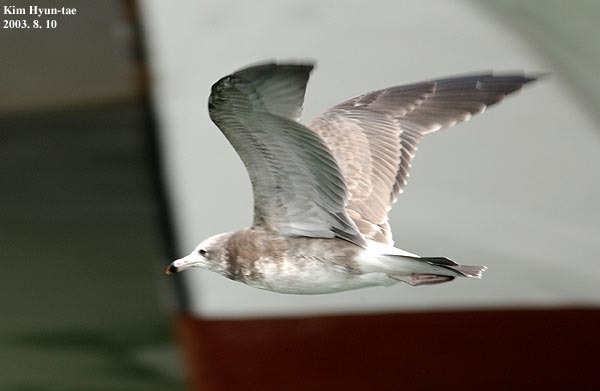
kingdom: Animalia
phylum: Chordata
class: Aves
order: Charadriiformes
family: Laridae
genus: Larus
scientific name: Larus crassirostris
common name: Black-tailed gull
